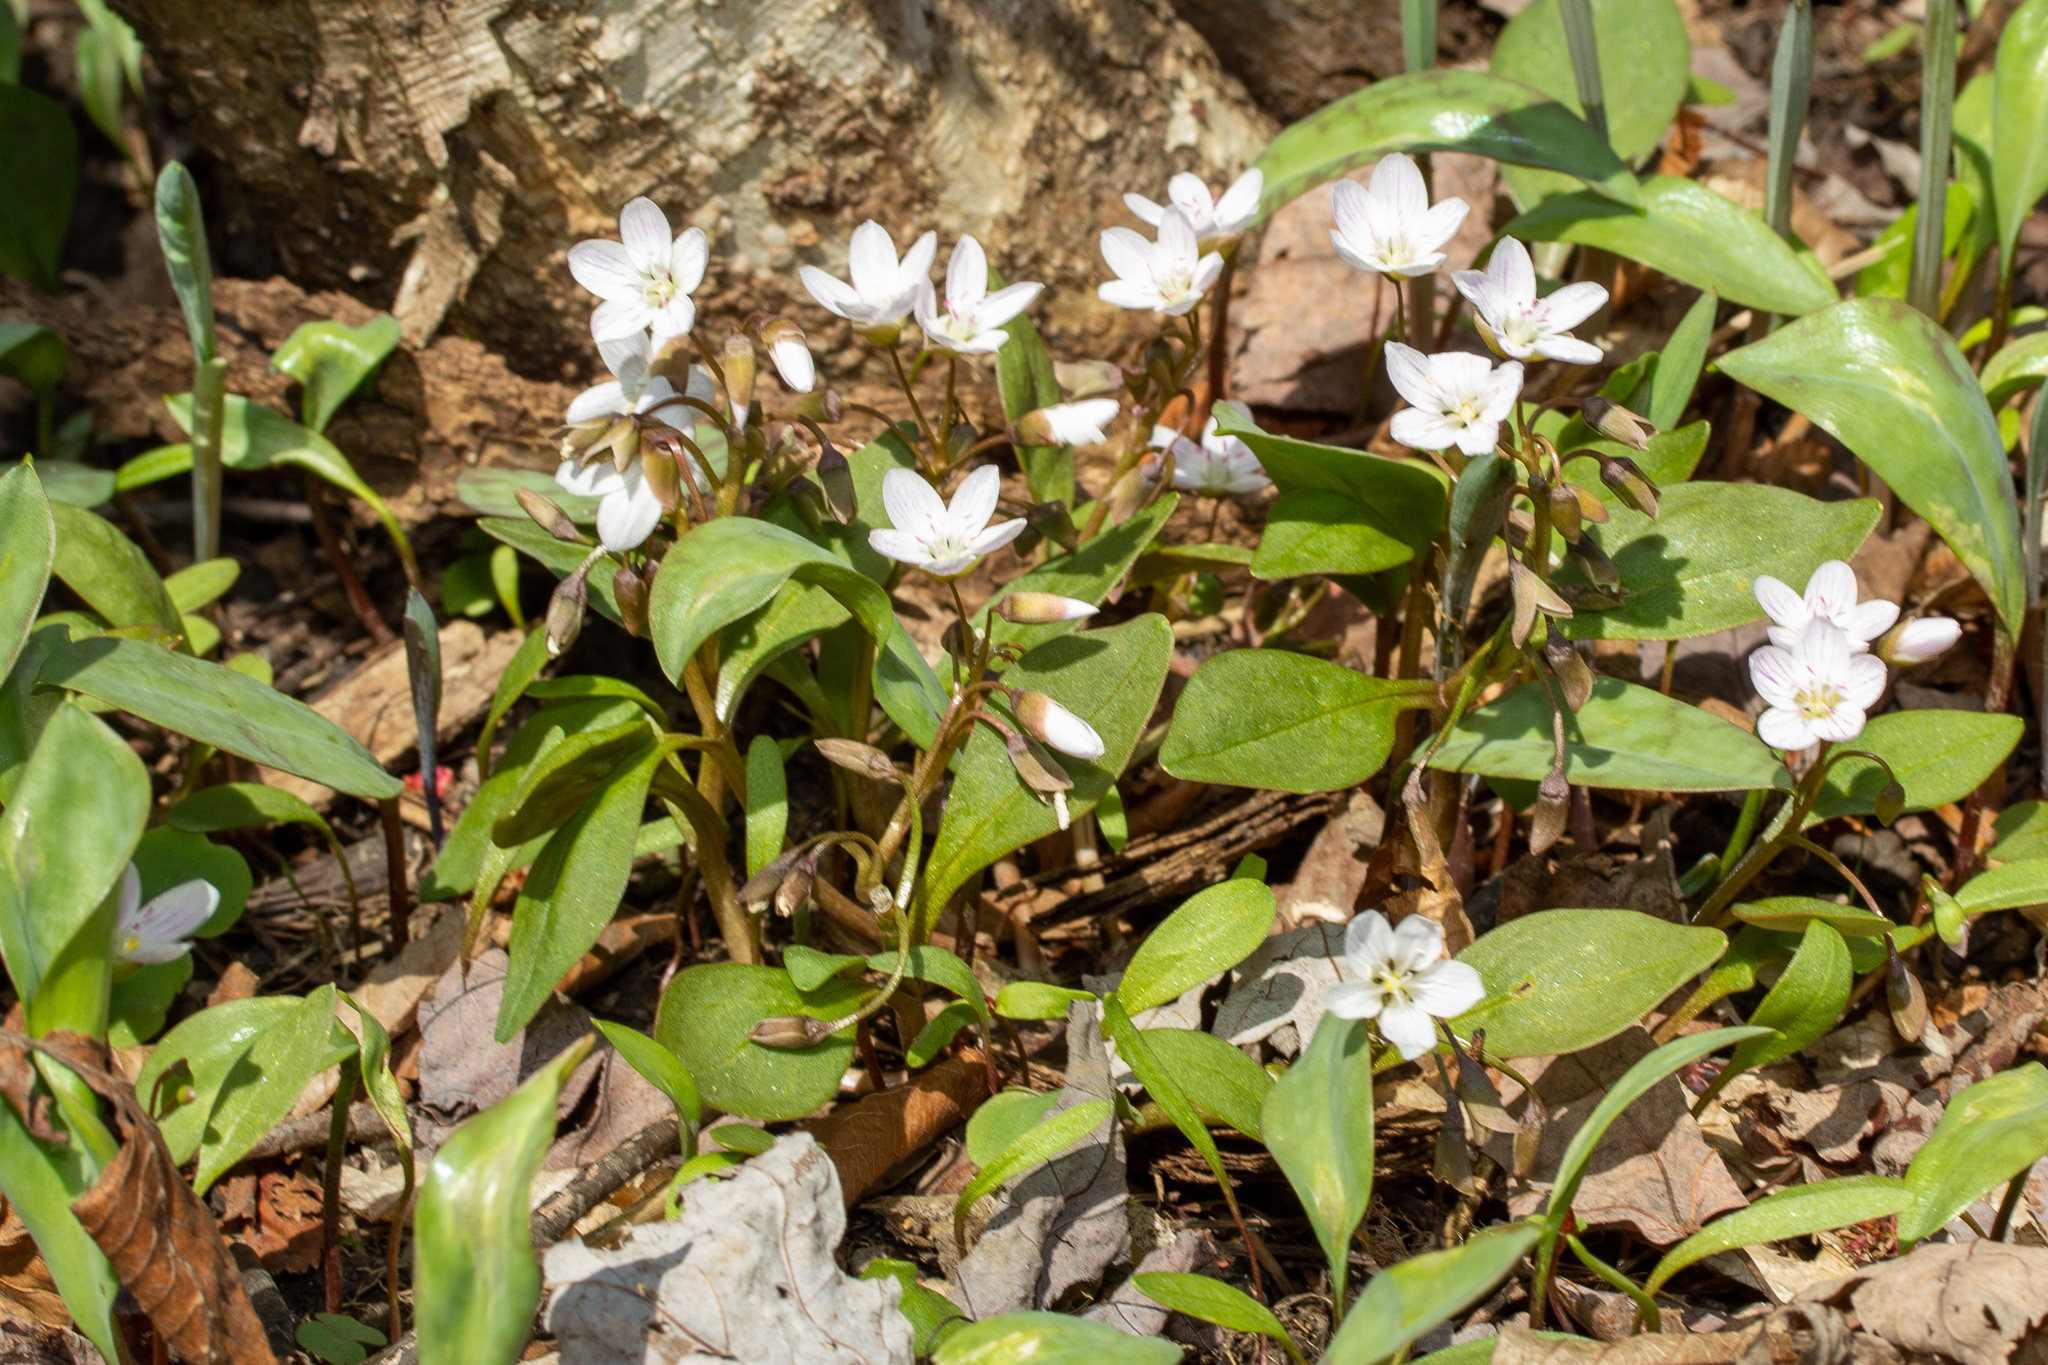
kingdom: Plantae
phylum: Tracheophyta
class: Magnoliopsida
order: Caryophyllales
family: Montiaceae
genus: Claytonia
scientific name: Claytonia caroliniana
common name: Carolina spring beauty
